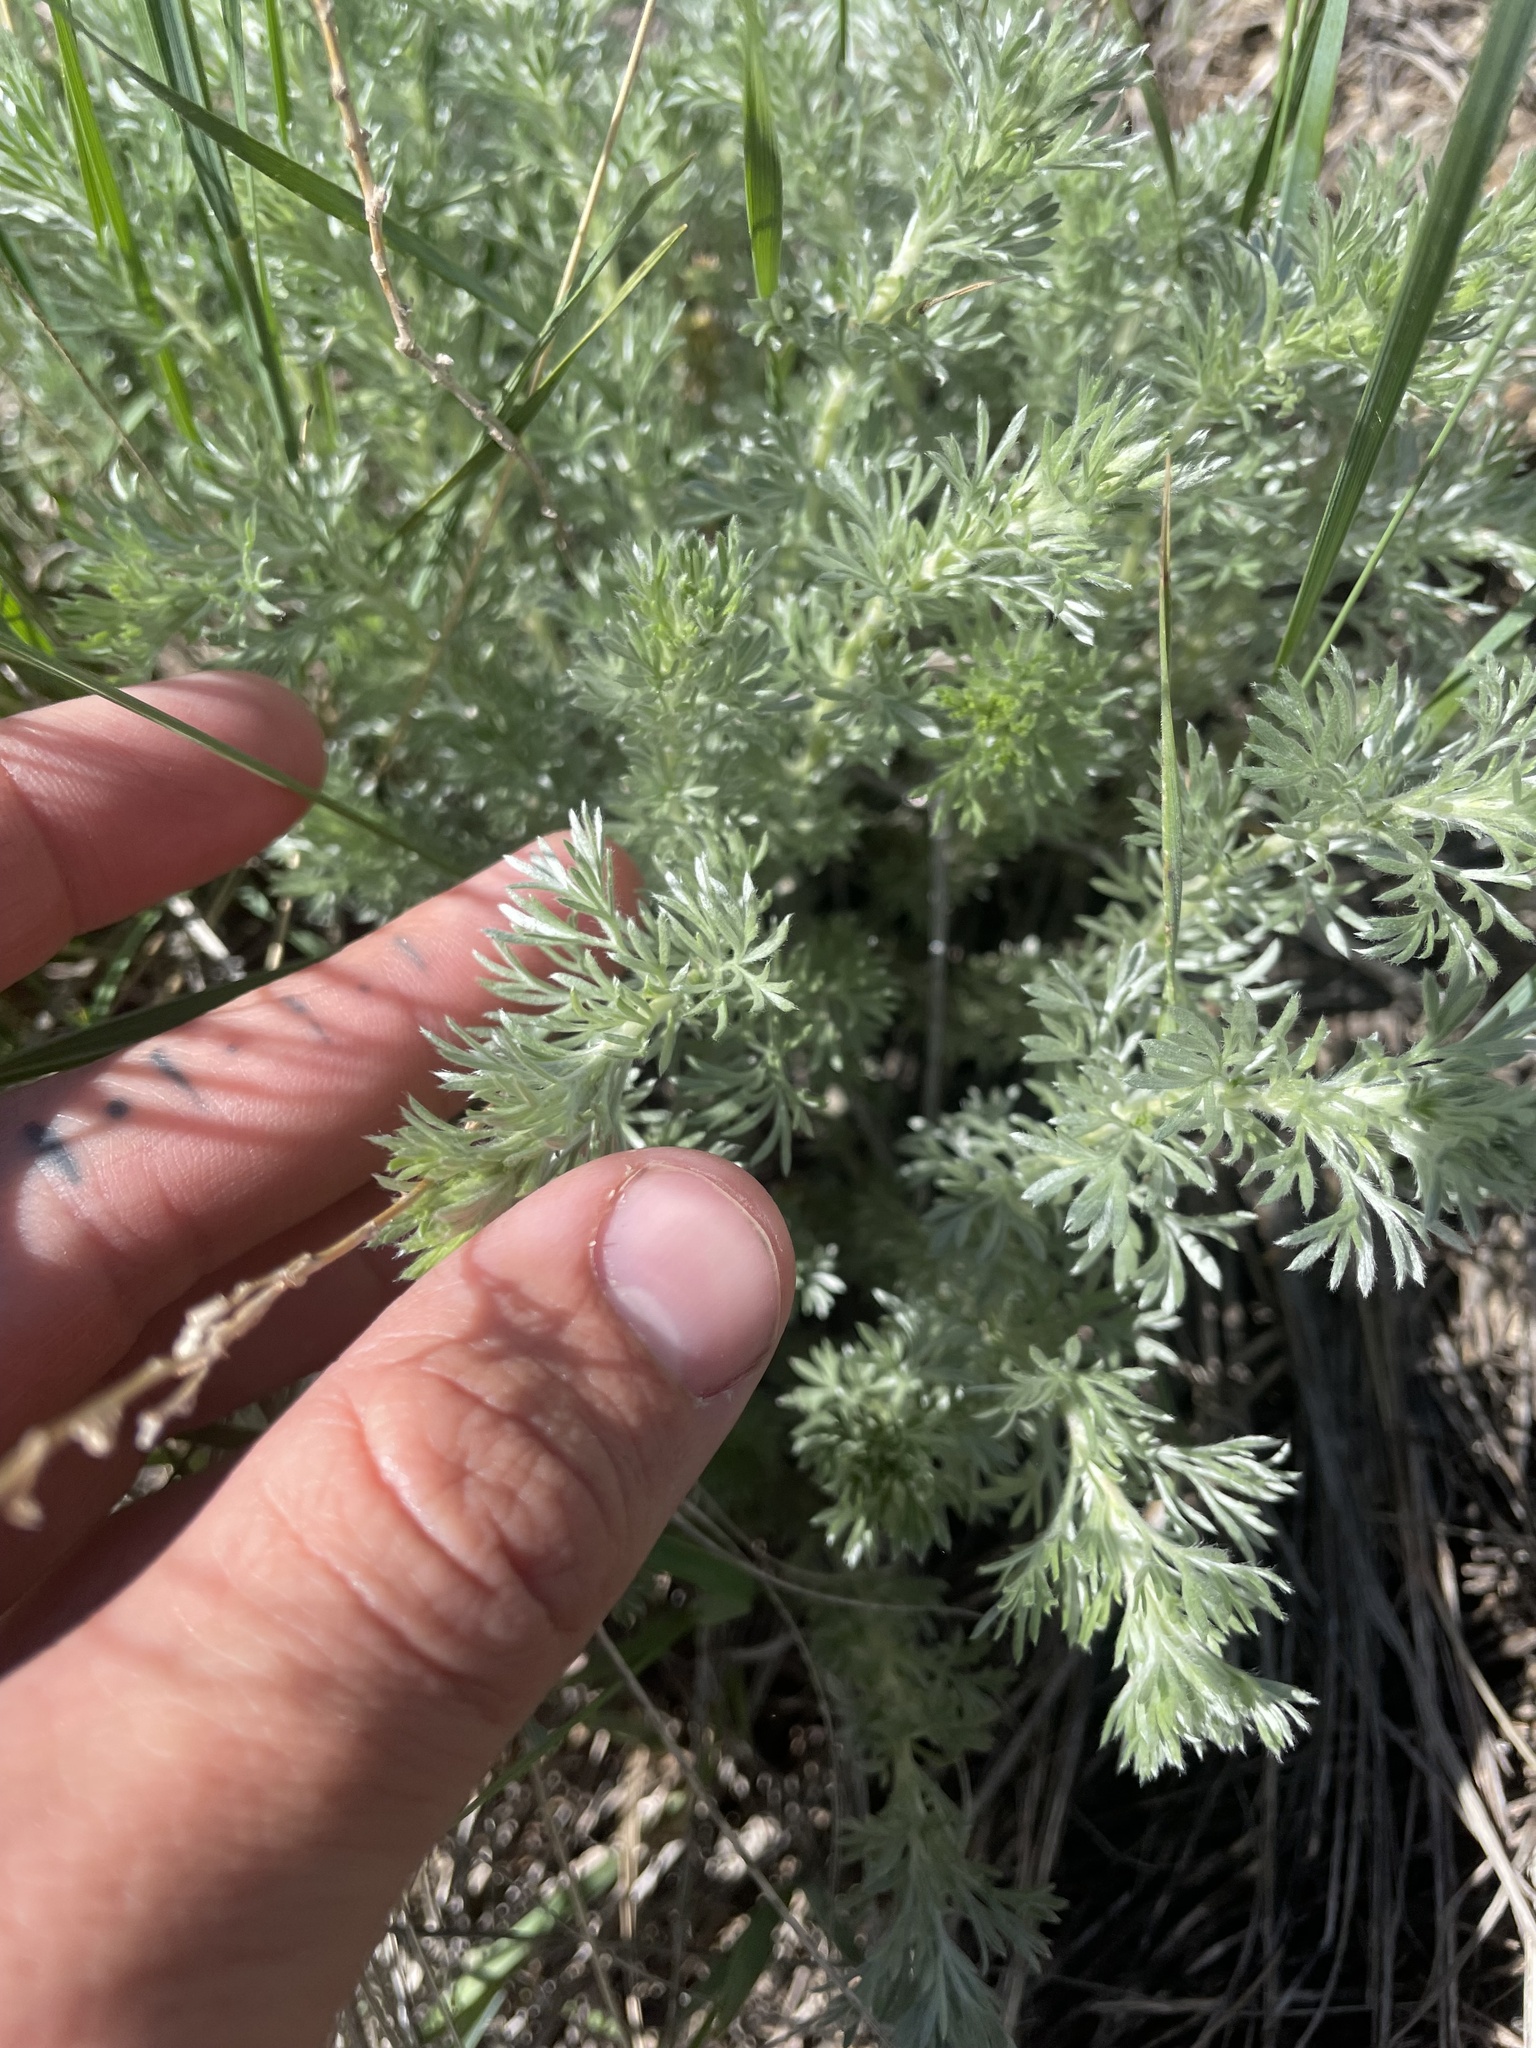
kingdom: Plantae
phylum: Tracheophyta
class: Magnoliopsida
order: Asterales
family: Asteraceae
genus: Artemisia
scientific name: Artemisia frigida
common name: Prairie sagewort
